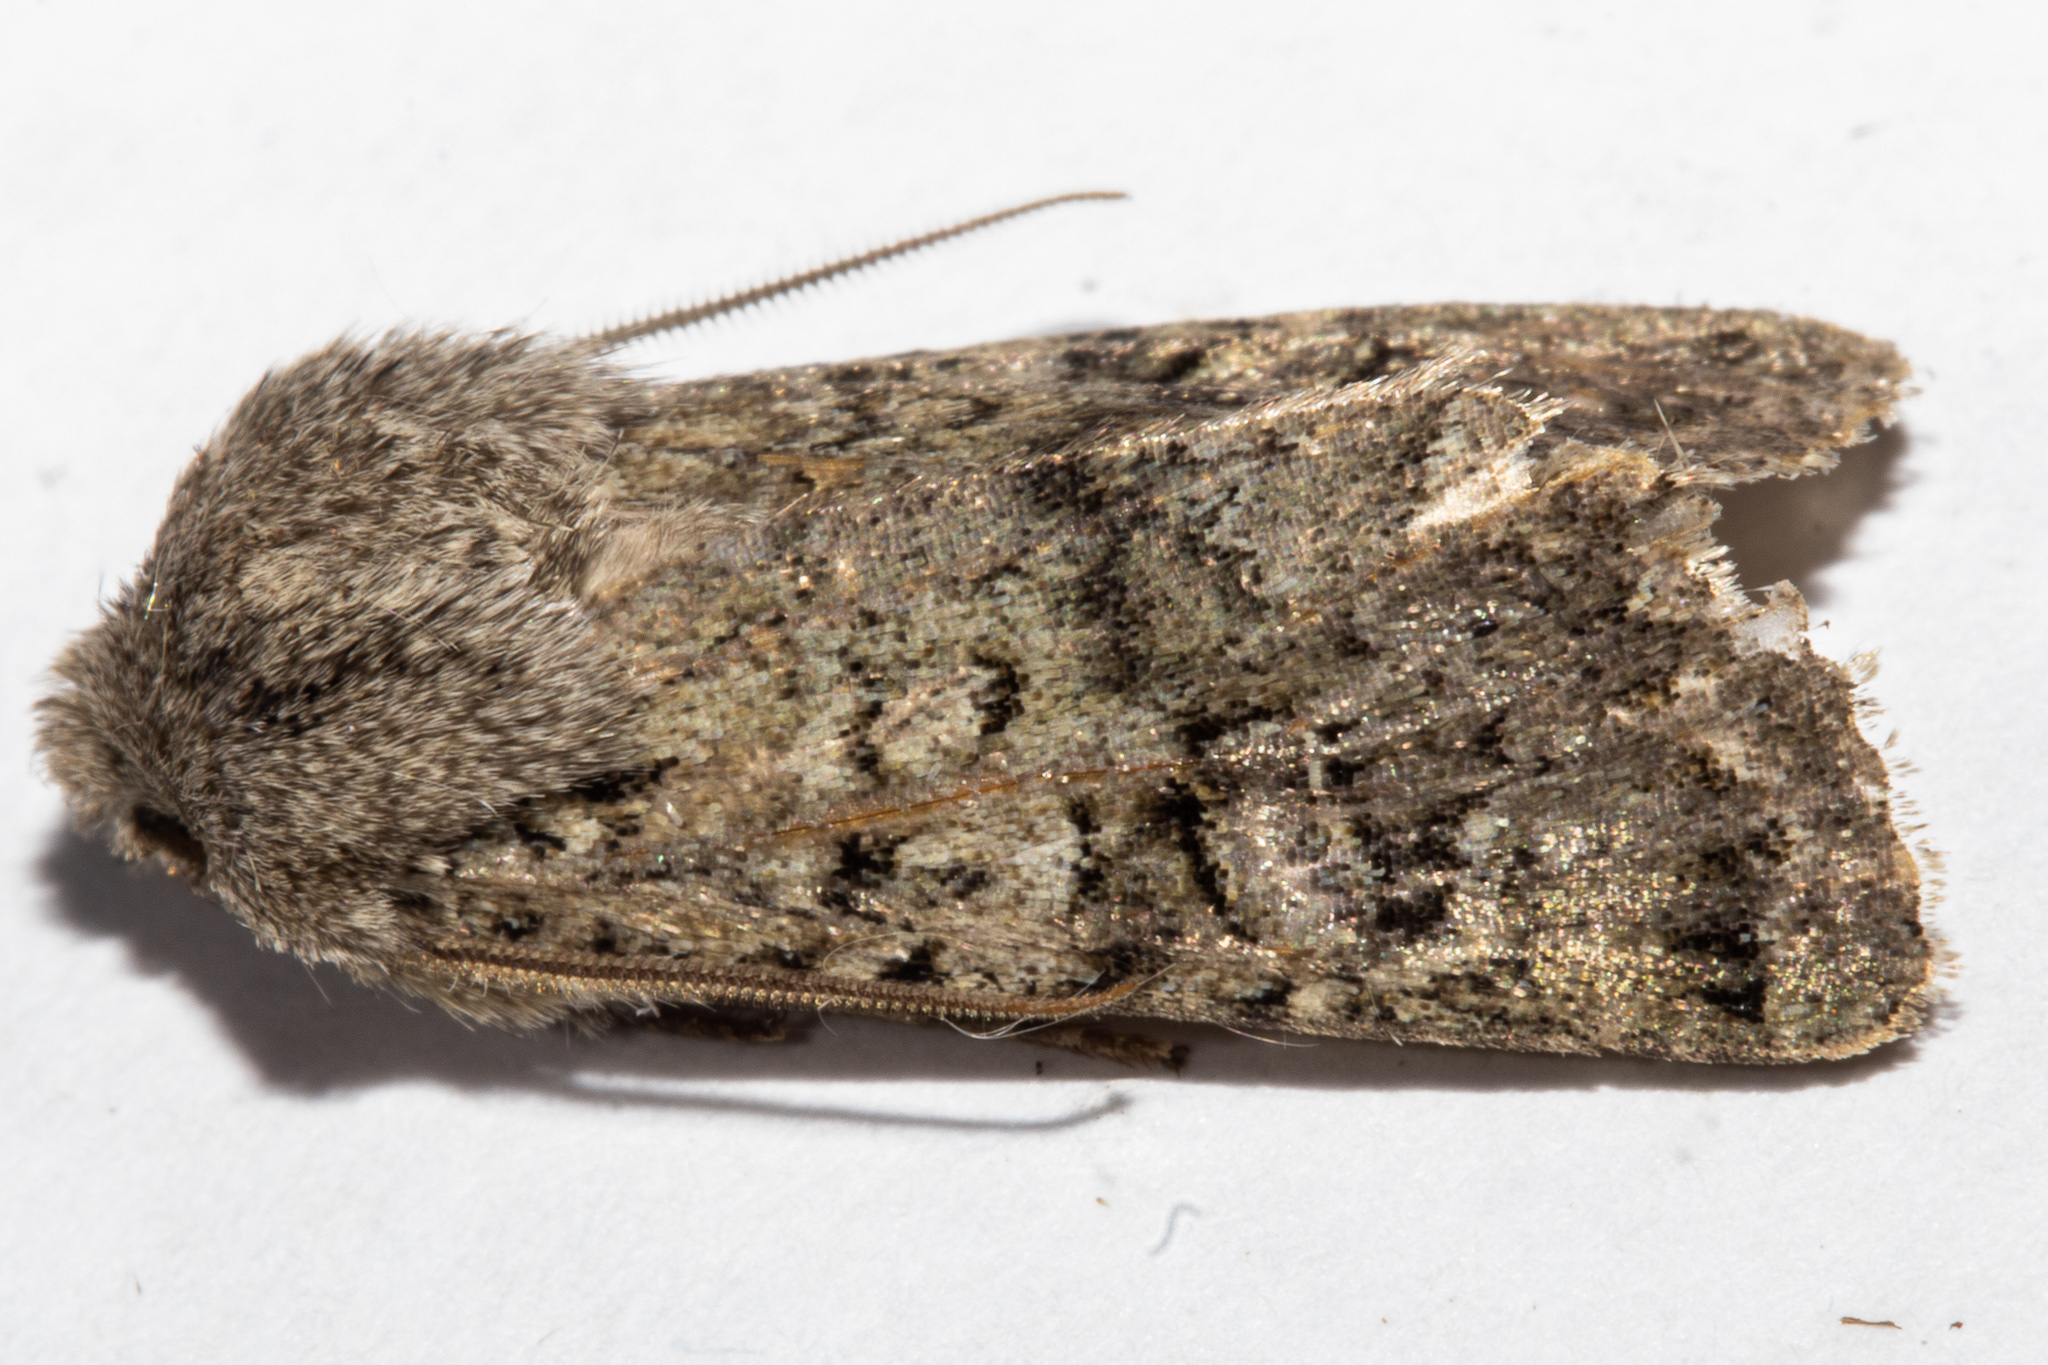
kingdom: Animalia
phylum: Arthropoda
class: Insecta
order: Lepidoptera
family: Noctuidae
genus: Ichneutica
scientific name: Ichneutica moderata
